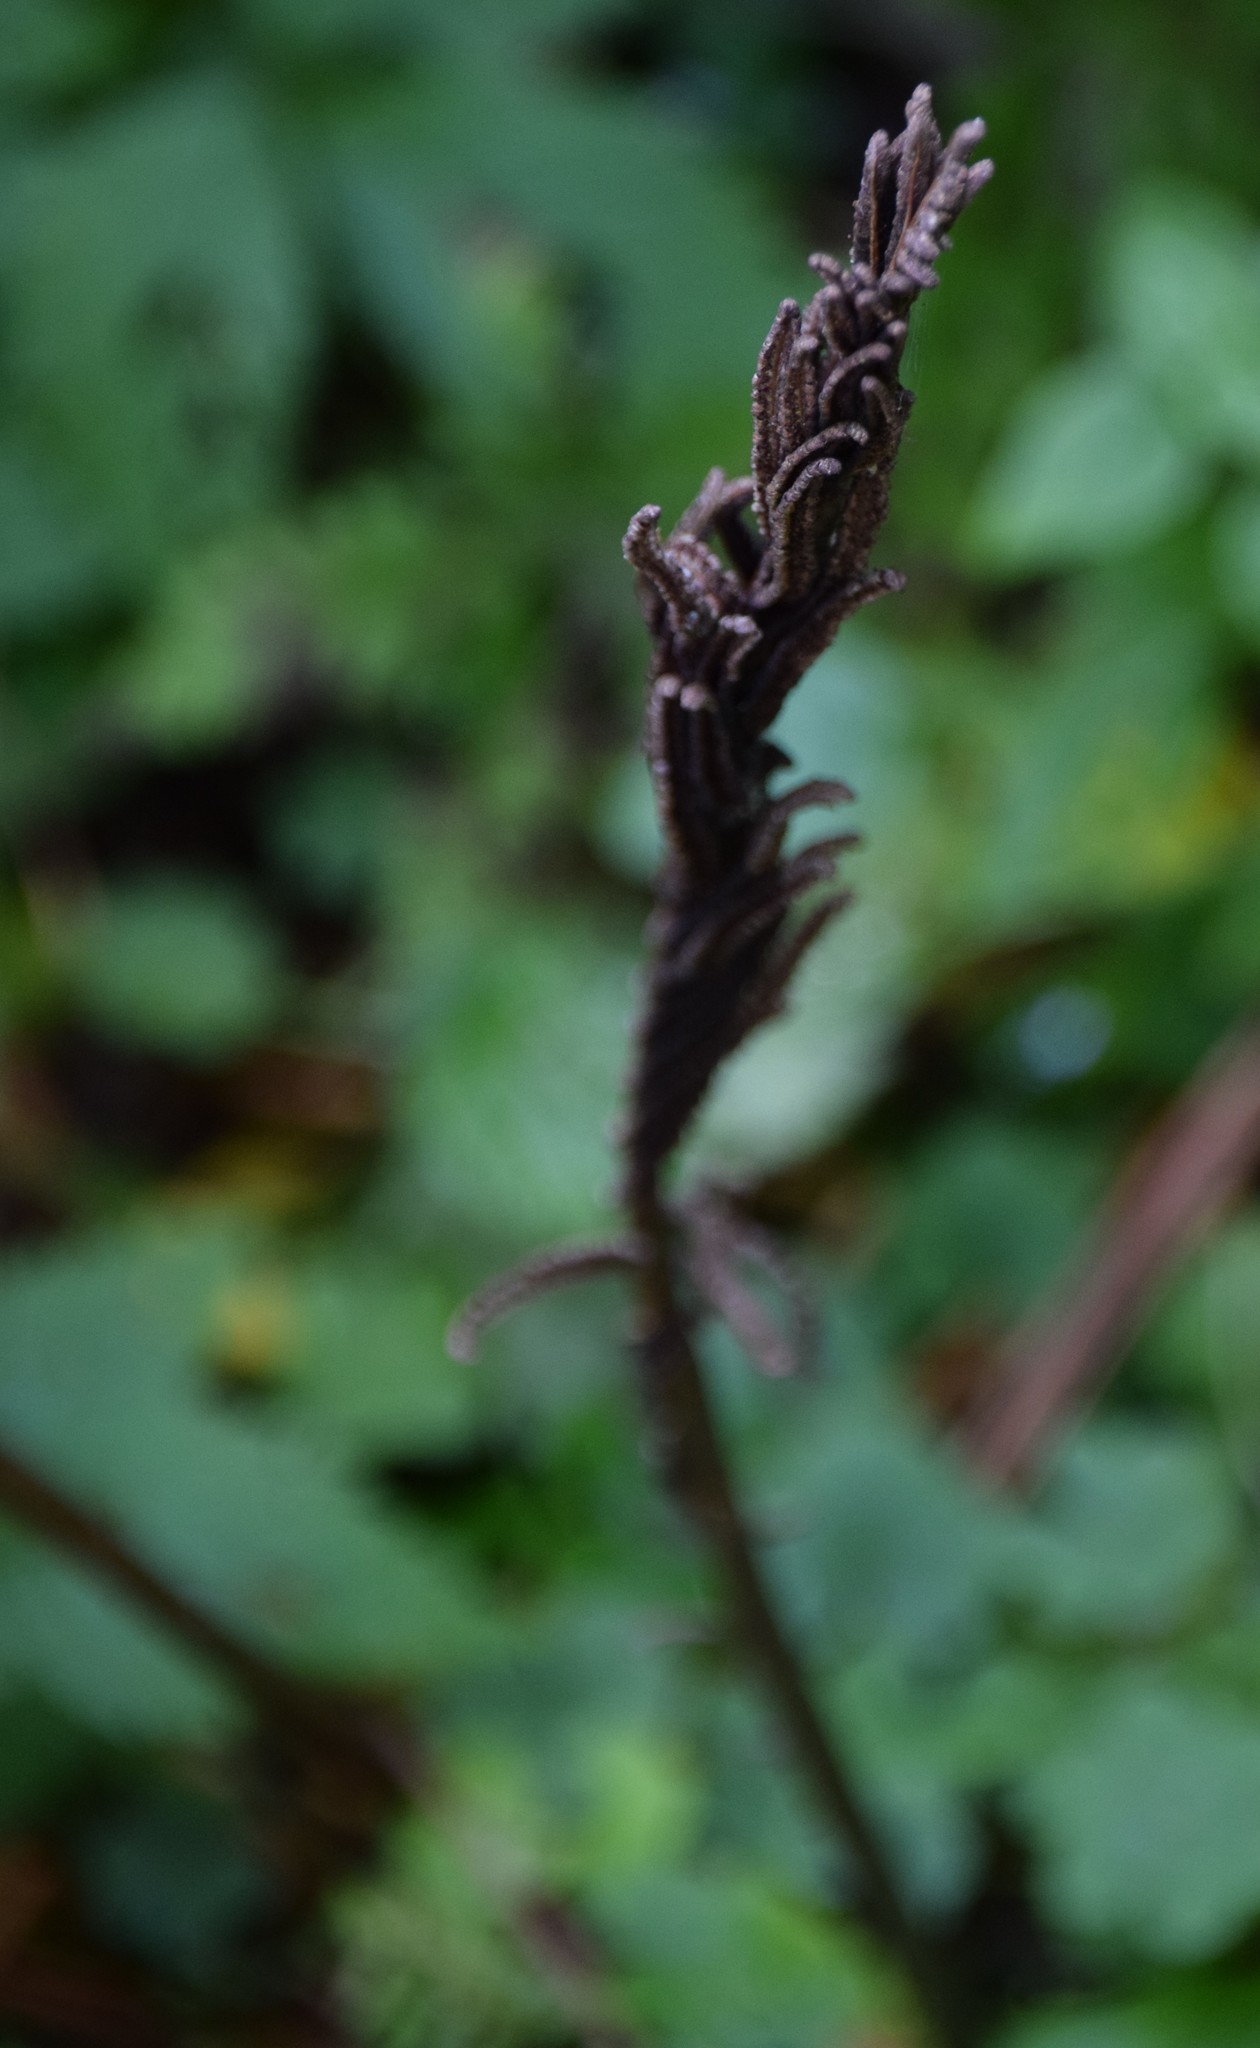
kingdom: Plantae
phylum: Tracheophyta
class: Polypodiopsida
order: Polypodiales
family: Onocleaceae
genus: Matteuccia
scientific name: Matteuccia struthiopteris
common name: Ostrich fern
